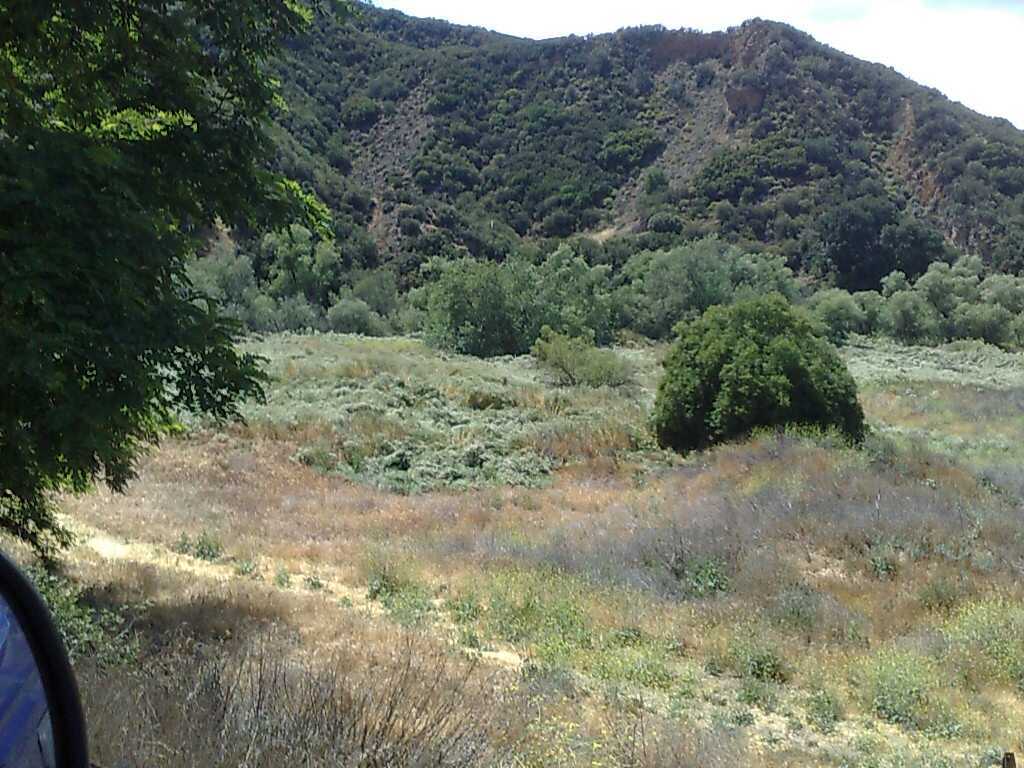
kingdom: Plantae
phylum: Tracheophyta
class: Magnoliopsida
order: Brassicales
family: Brassicaceae
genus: Hirschfeldia
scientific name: Hirschfeldia incana
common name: Hoary mustard
